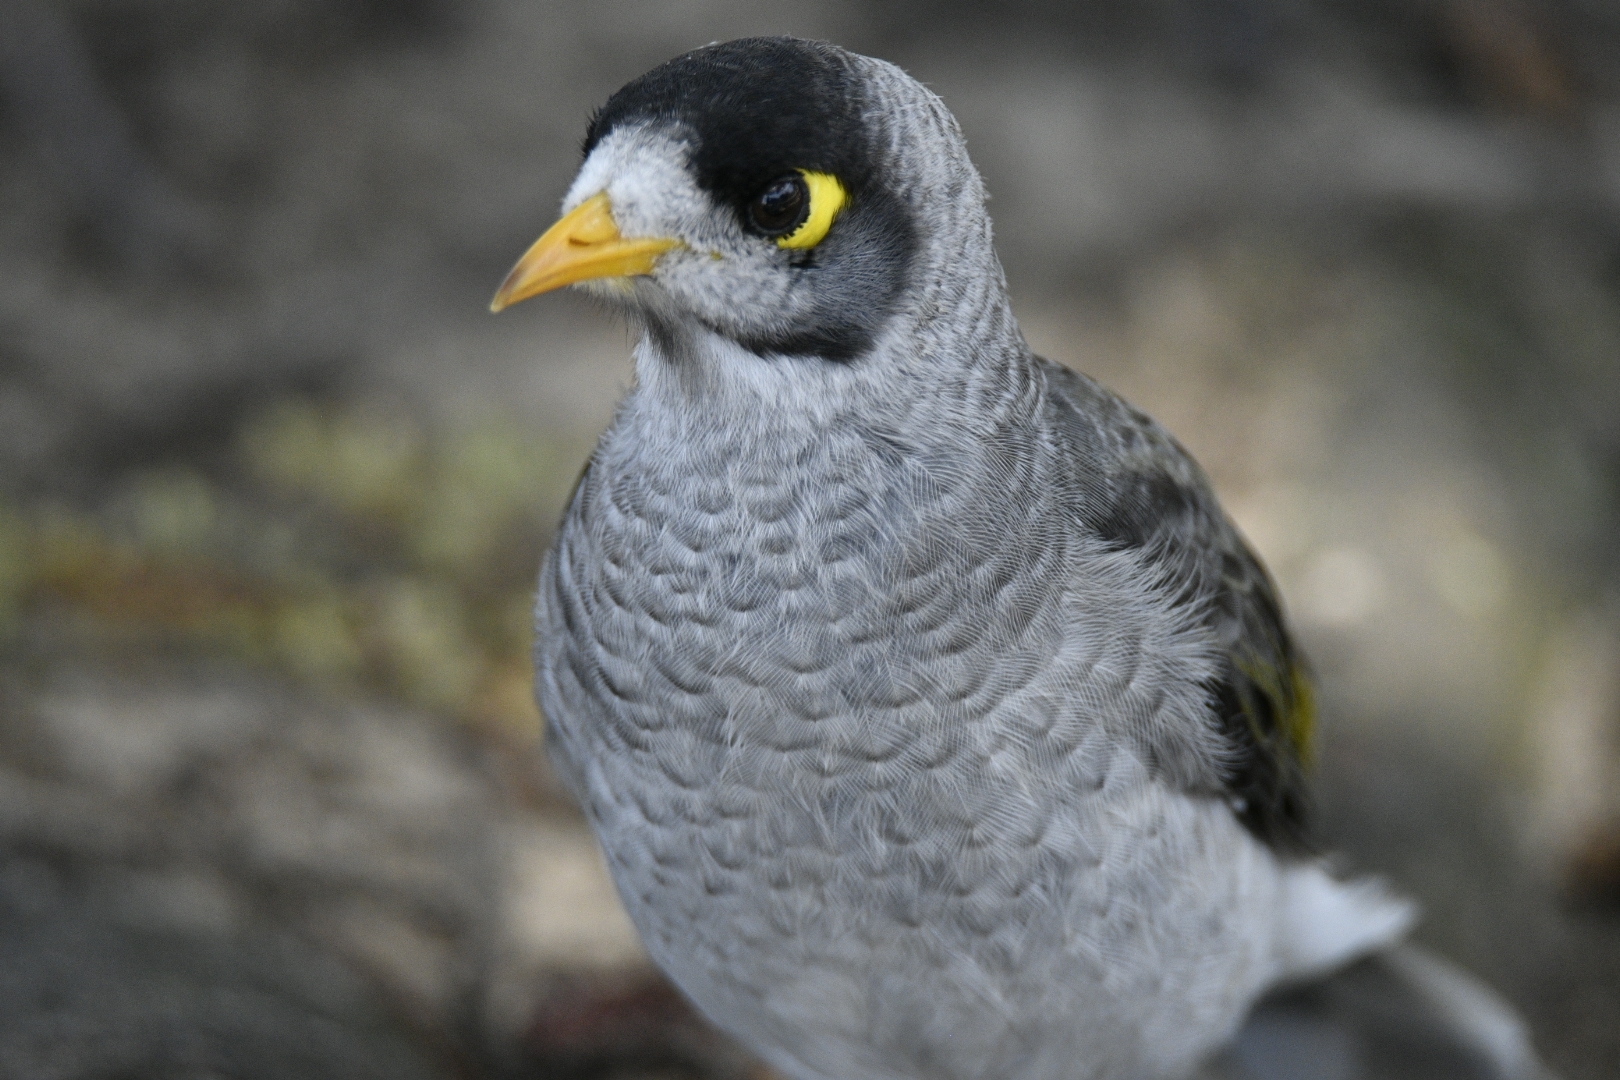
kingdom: Animalia
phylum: Chordata
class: Aves
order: Passeriformes
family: Meliphagidae
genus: Manorina
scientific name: Manorina melanocephala
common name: Noisy miner
